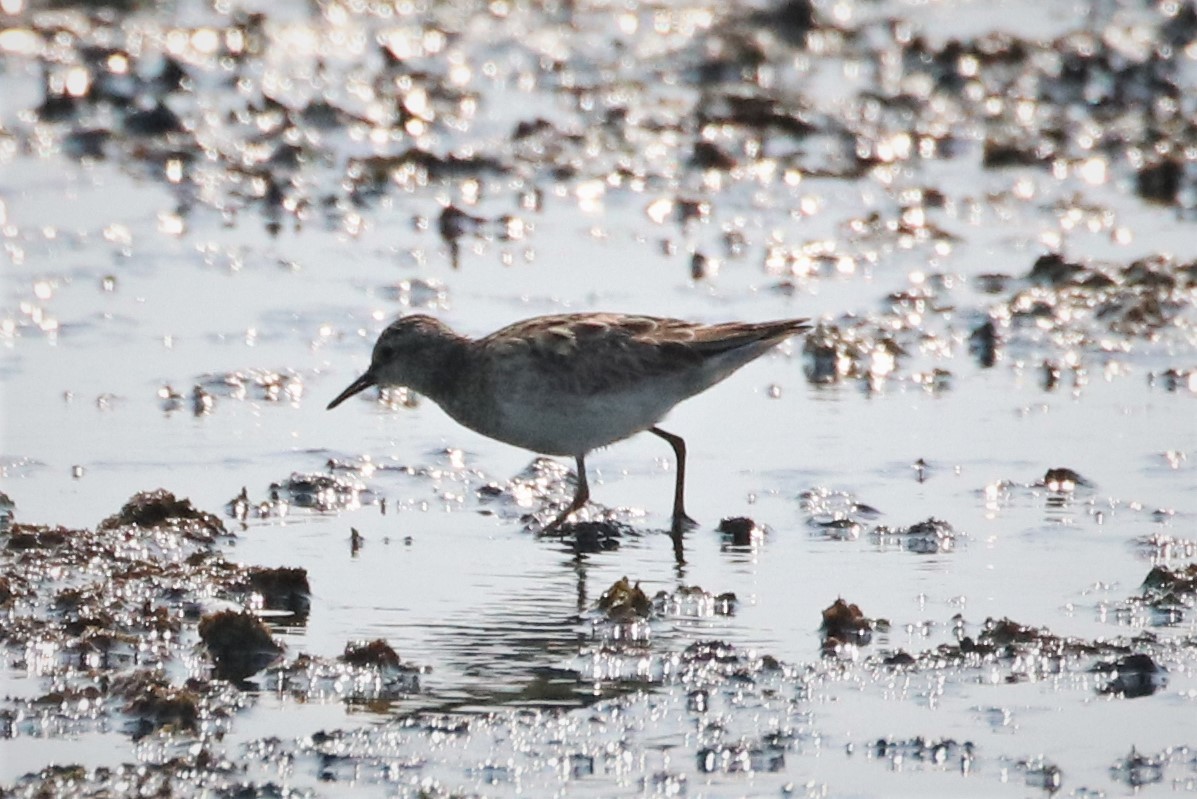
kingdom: Animalia
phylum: Chordata
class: Aves
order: Charadriiformes
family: Scolopacidae
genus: Calidris
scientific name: Calidris subminuta
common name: Long-toed stint
